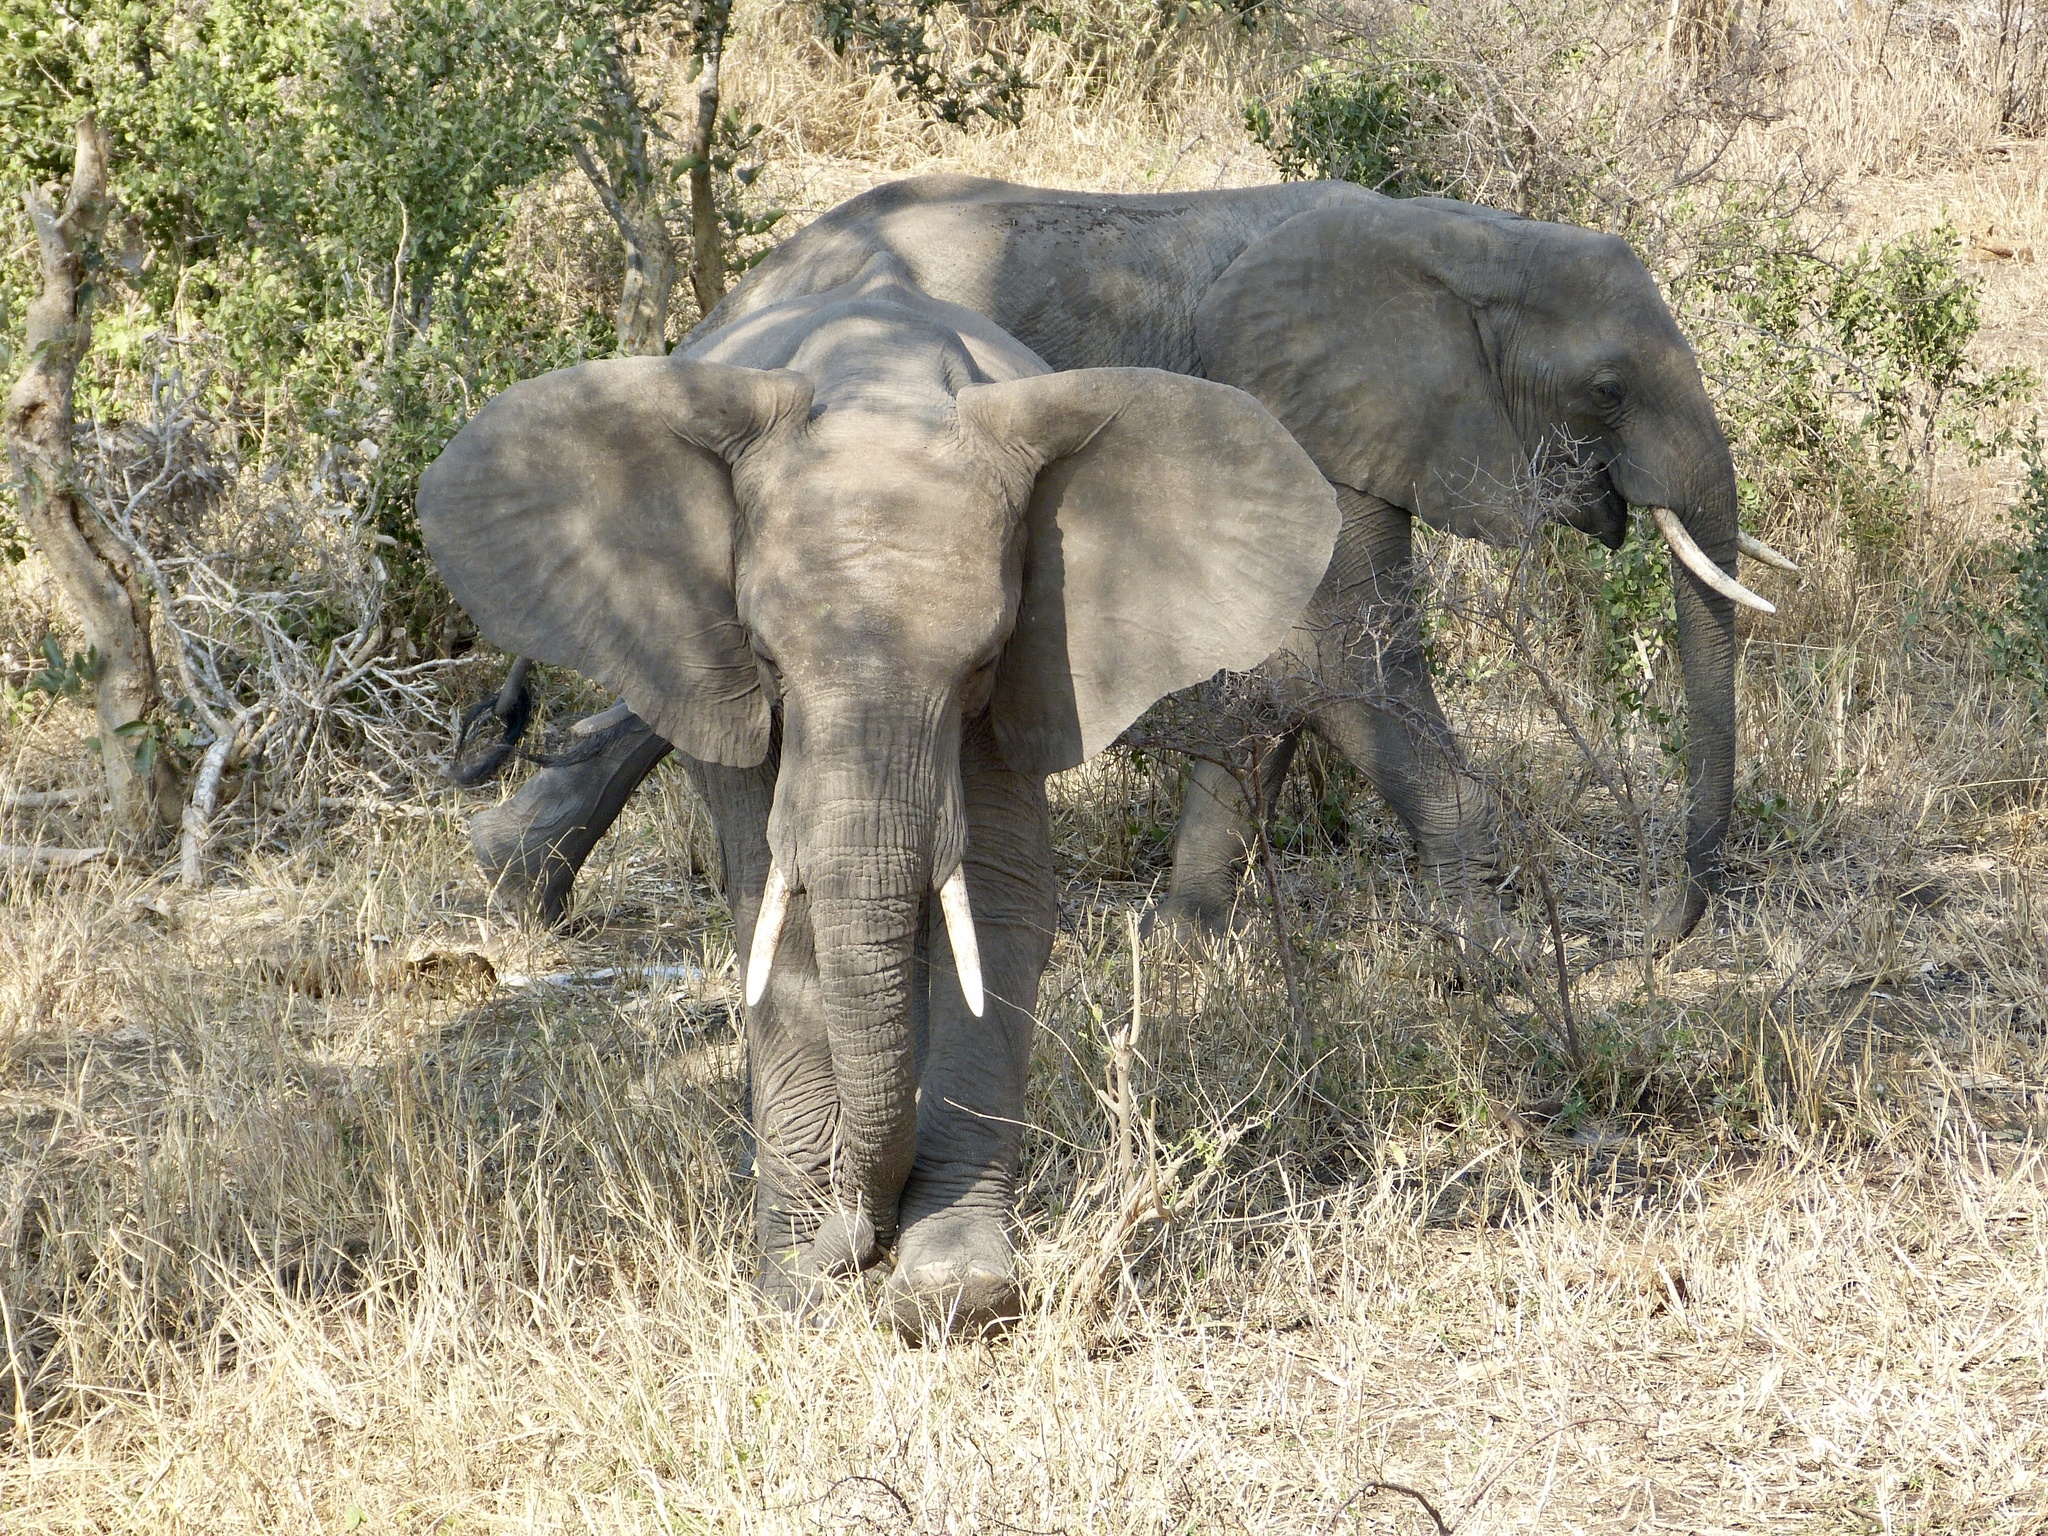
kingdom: Animalia
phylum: Chordata
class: Mammalia
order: Proboscidea
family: Elephantidae
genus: Loxodonta
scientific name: Loxodonta africana
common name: African elephant
